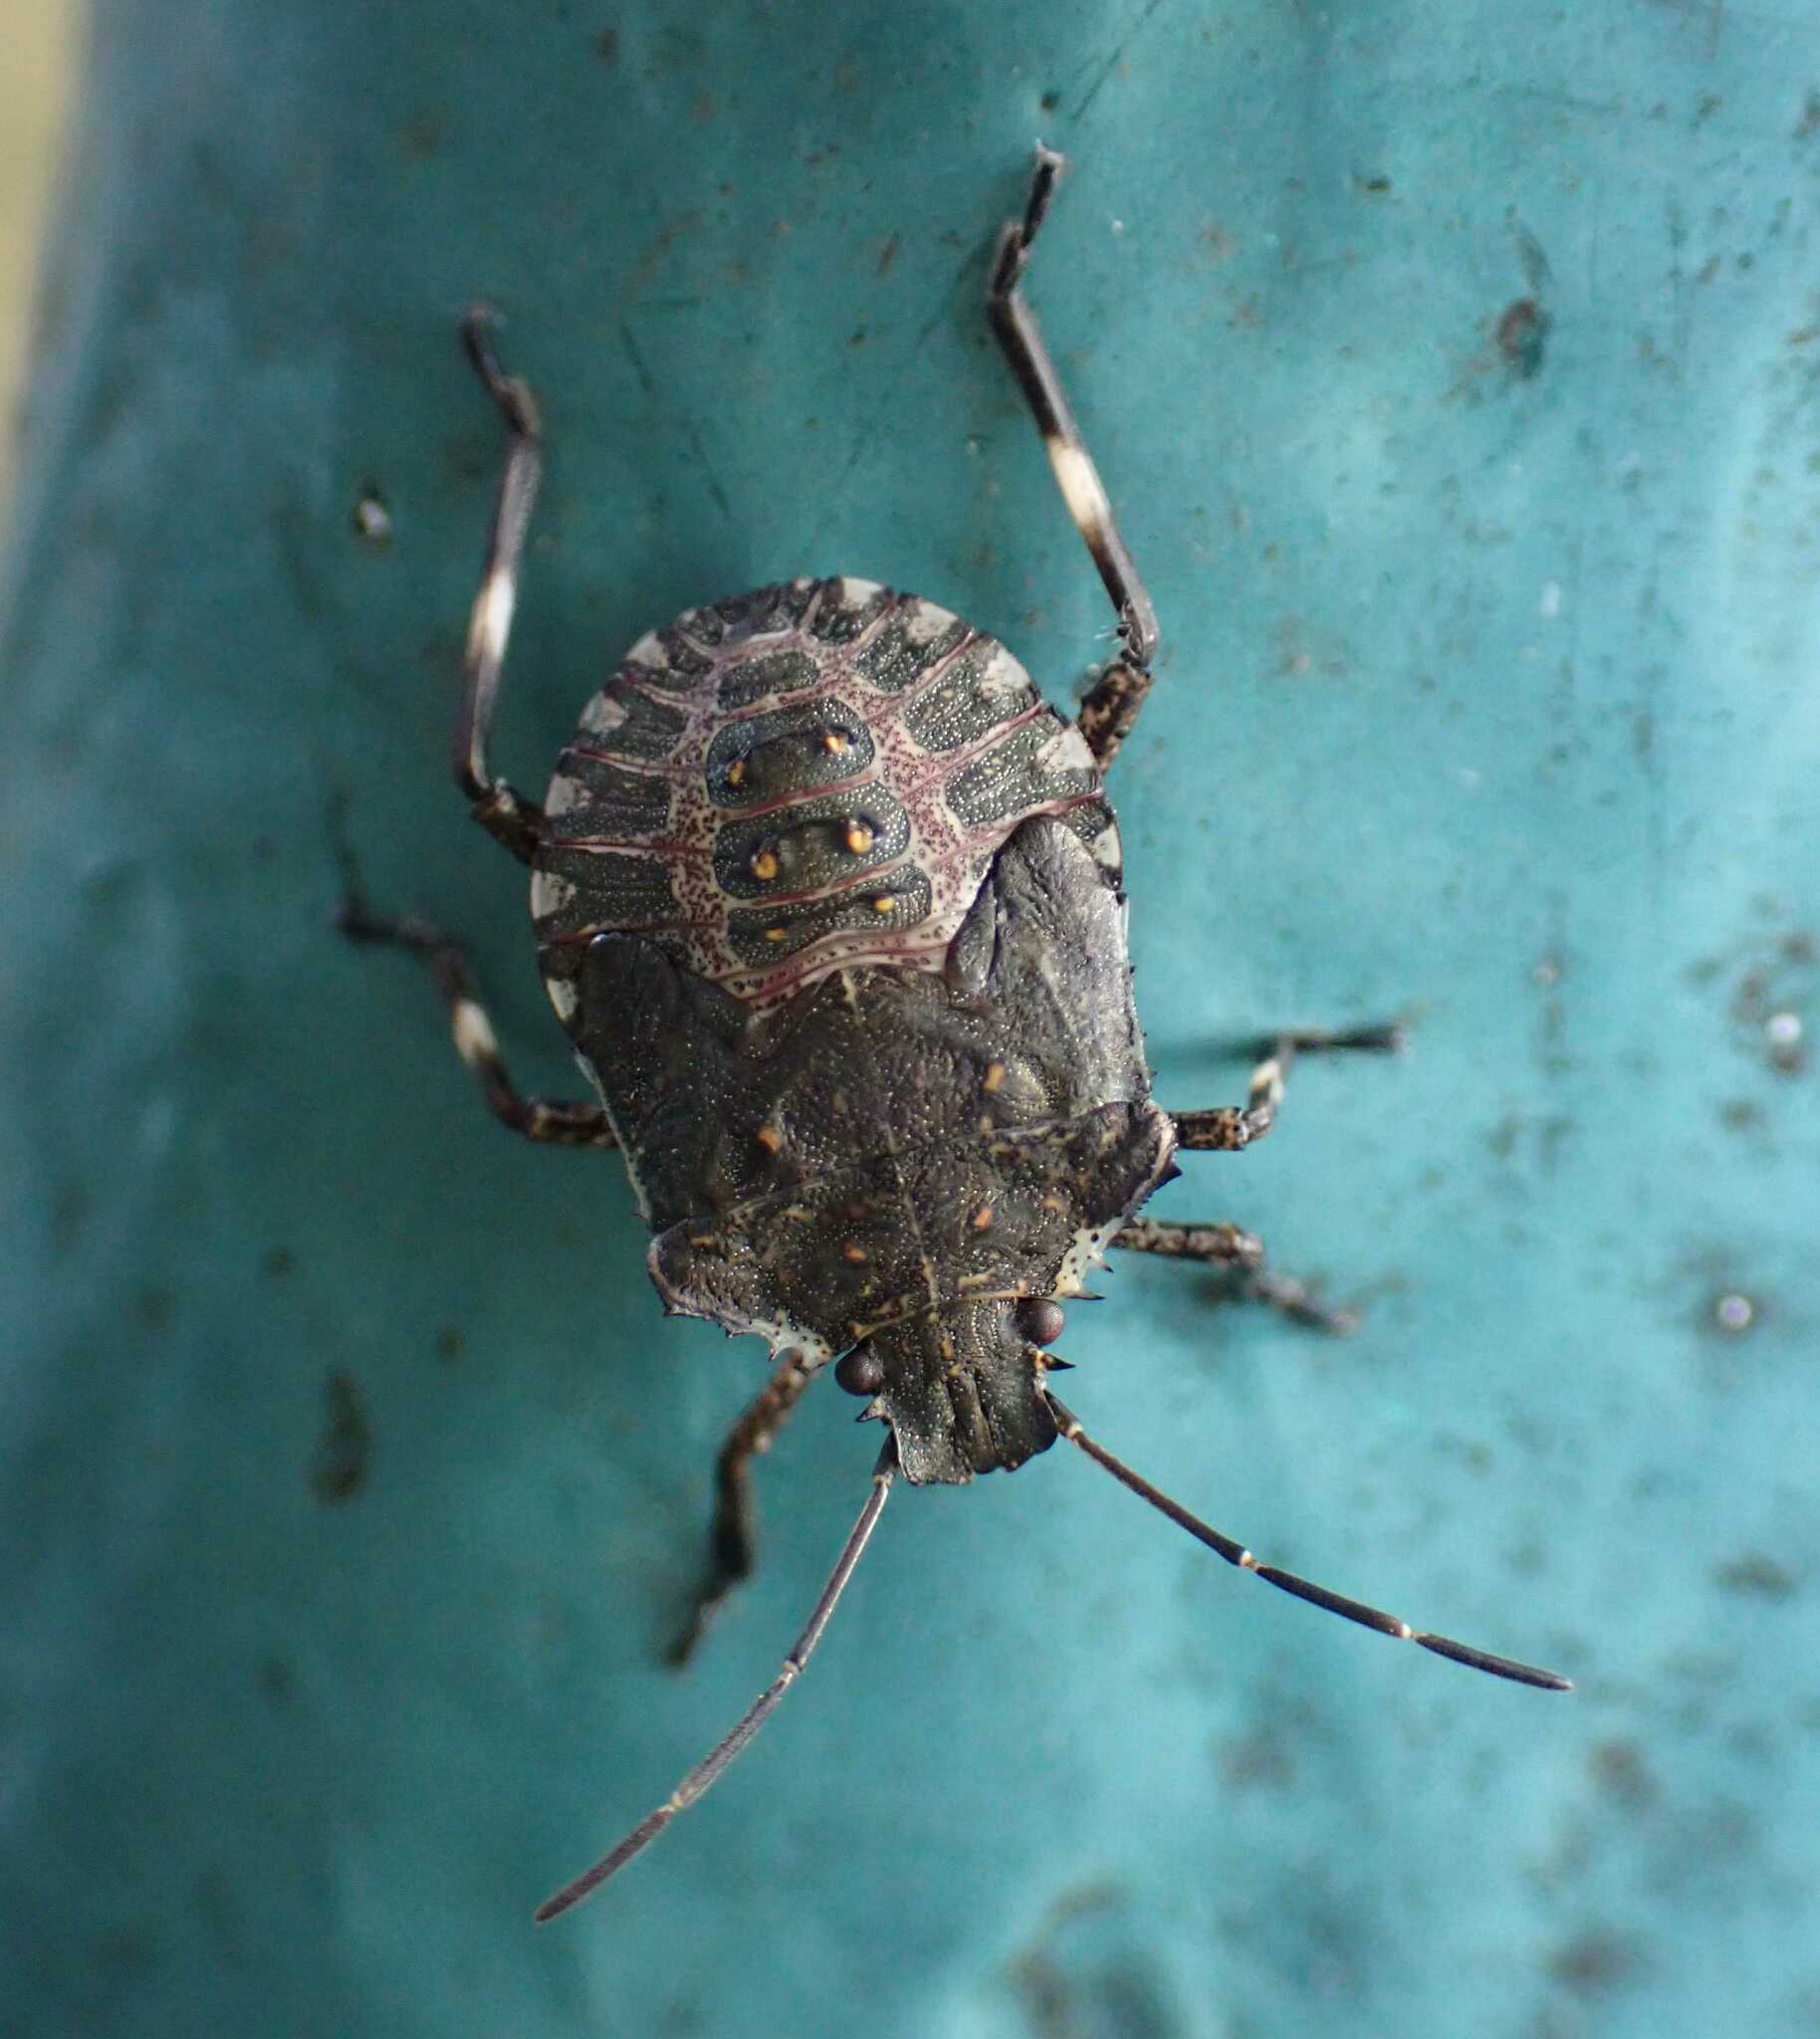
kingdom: Animalia
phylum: Arthropoda
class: Insecta
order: Hemiptera
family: Pentatomidae
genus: Halyomorpha
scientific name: Halyomorpha halys
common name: Brown marmorated stink bug
